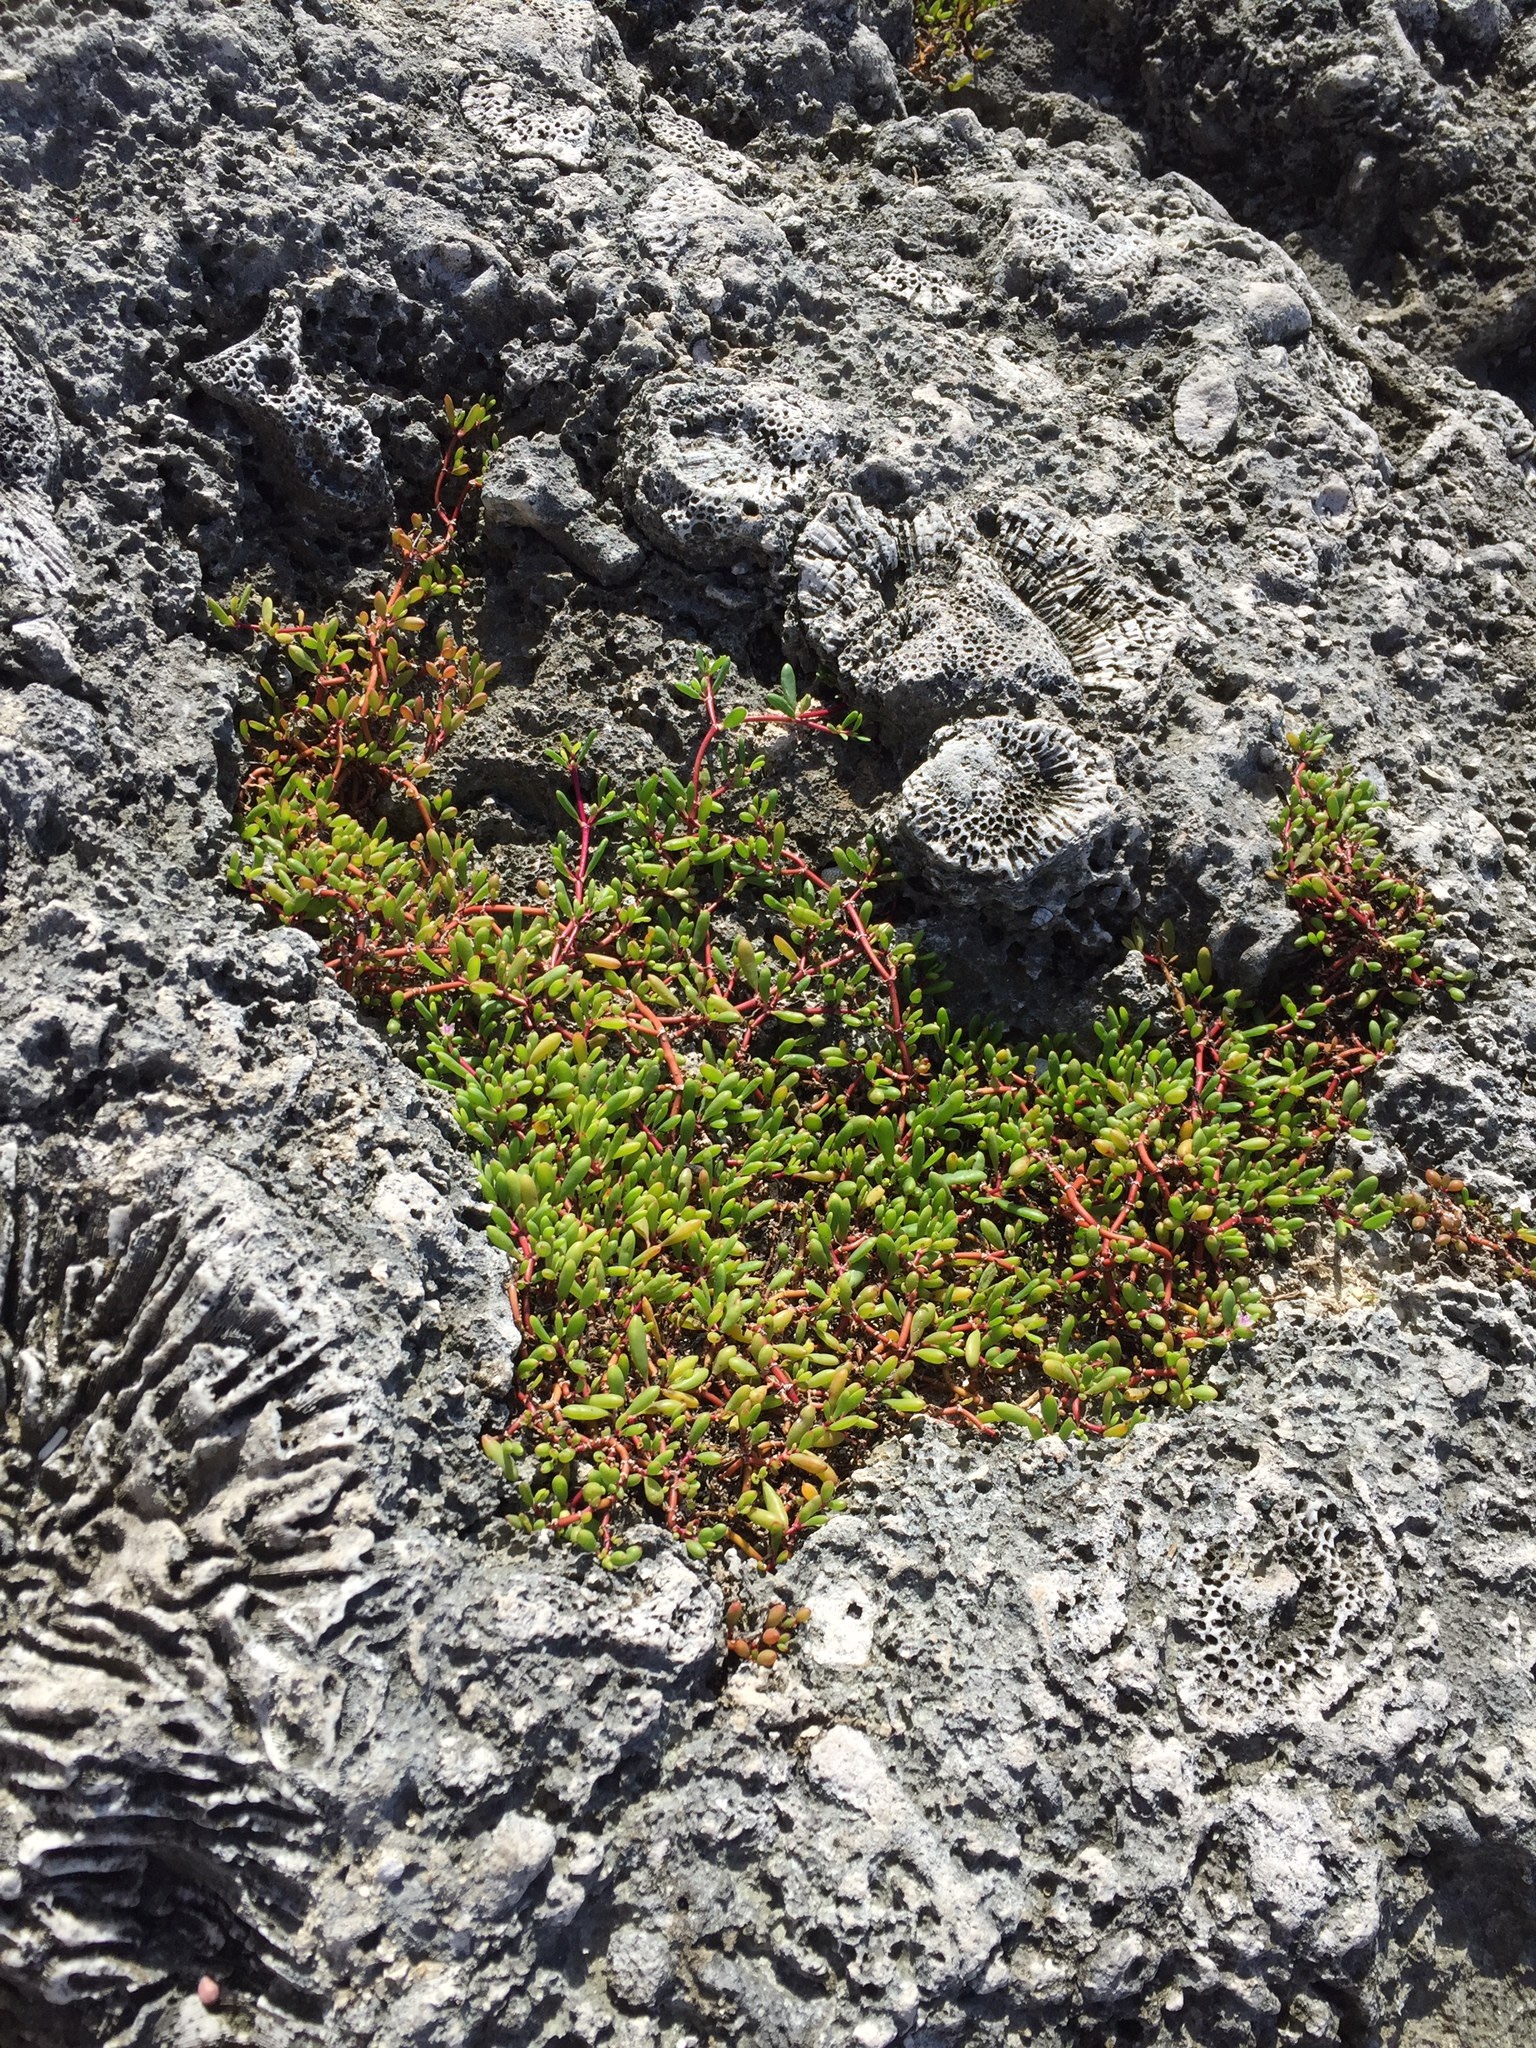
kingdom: Plantae
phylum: Tracheophyta
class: Magnoliopsida
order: Caryophyllales
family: Aizoaceae
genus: Sesuvium
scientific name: Sesuvium portulacastrum
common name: Sea-purslane
